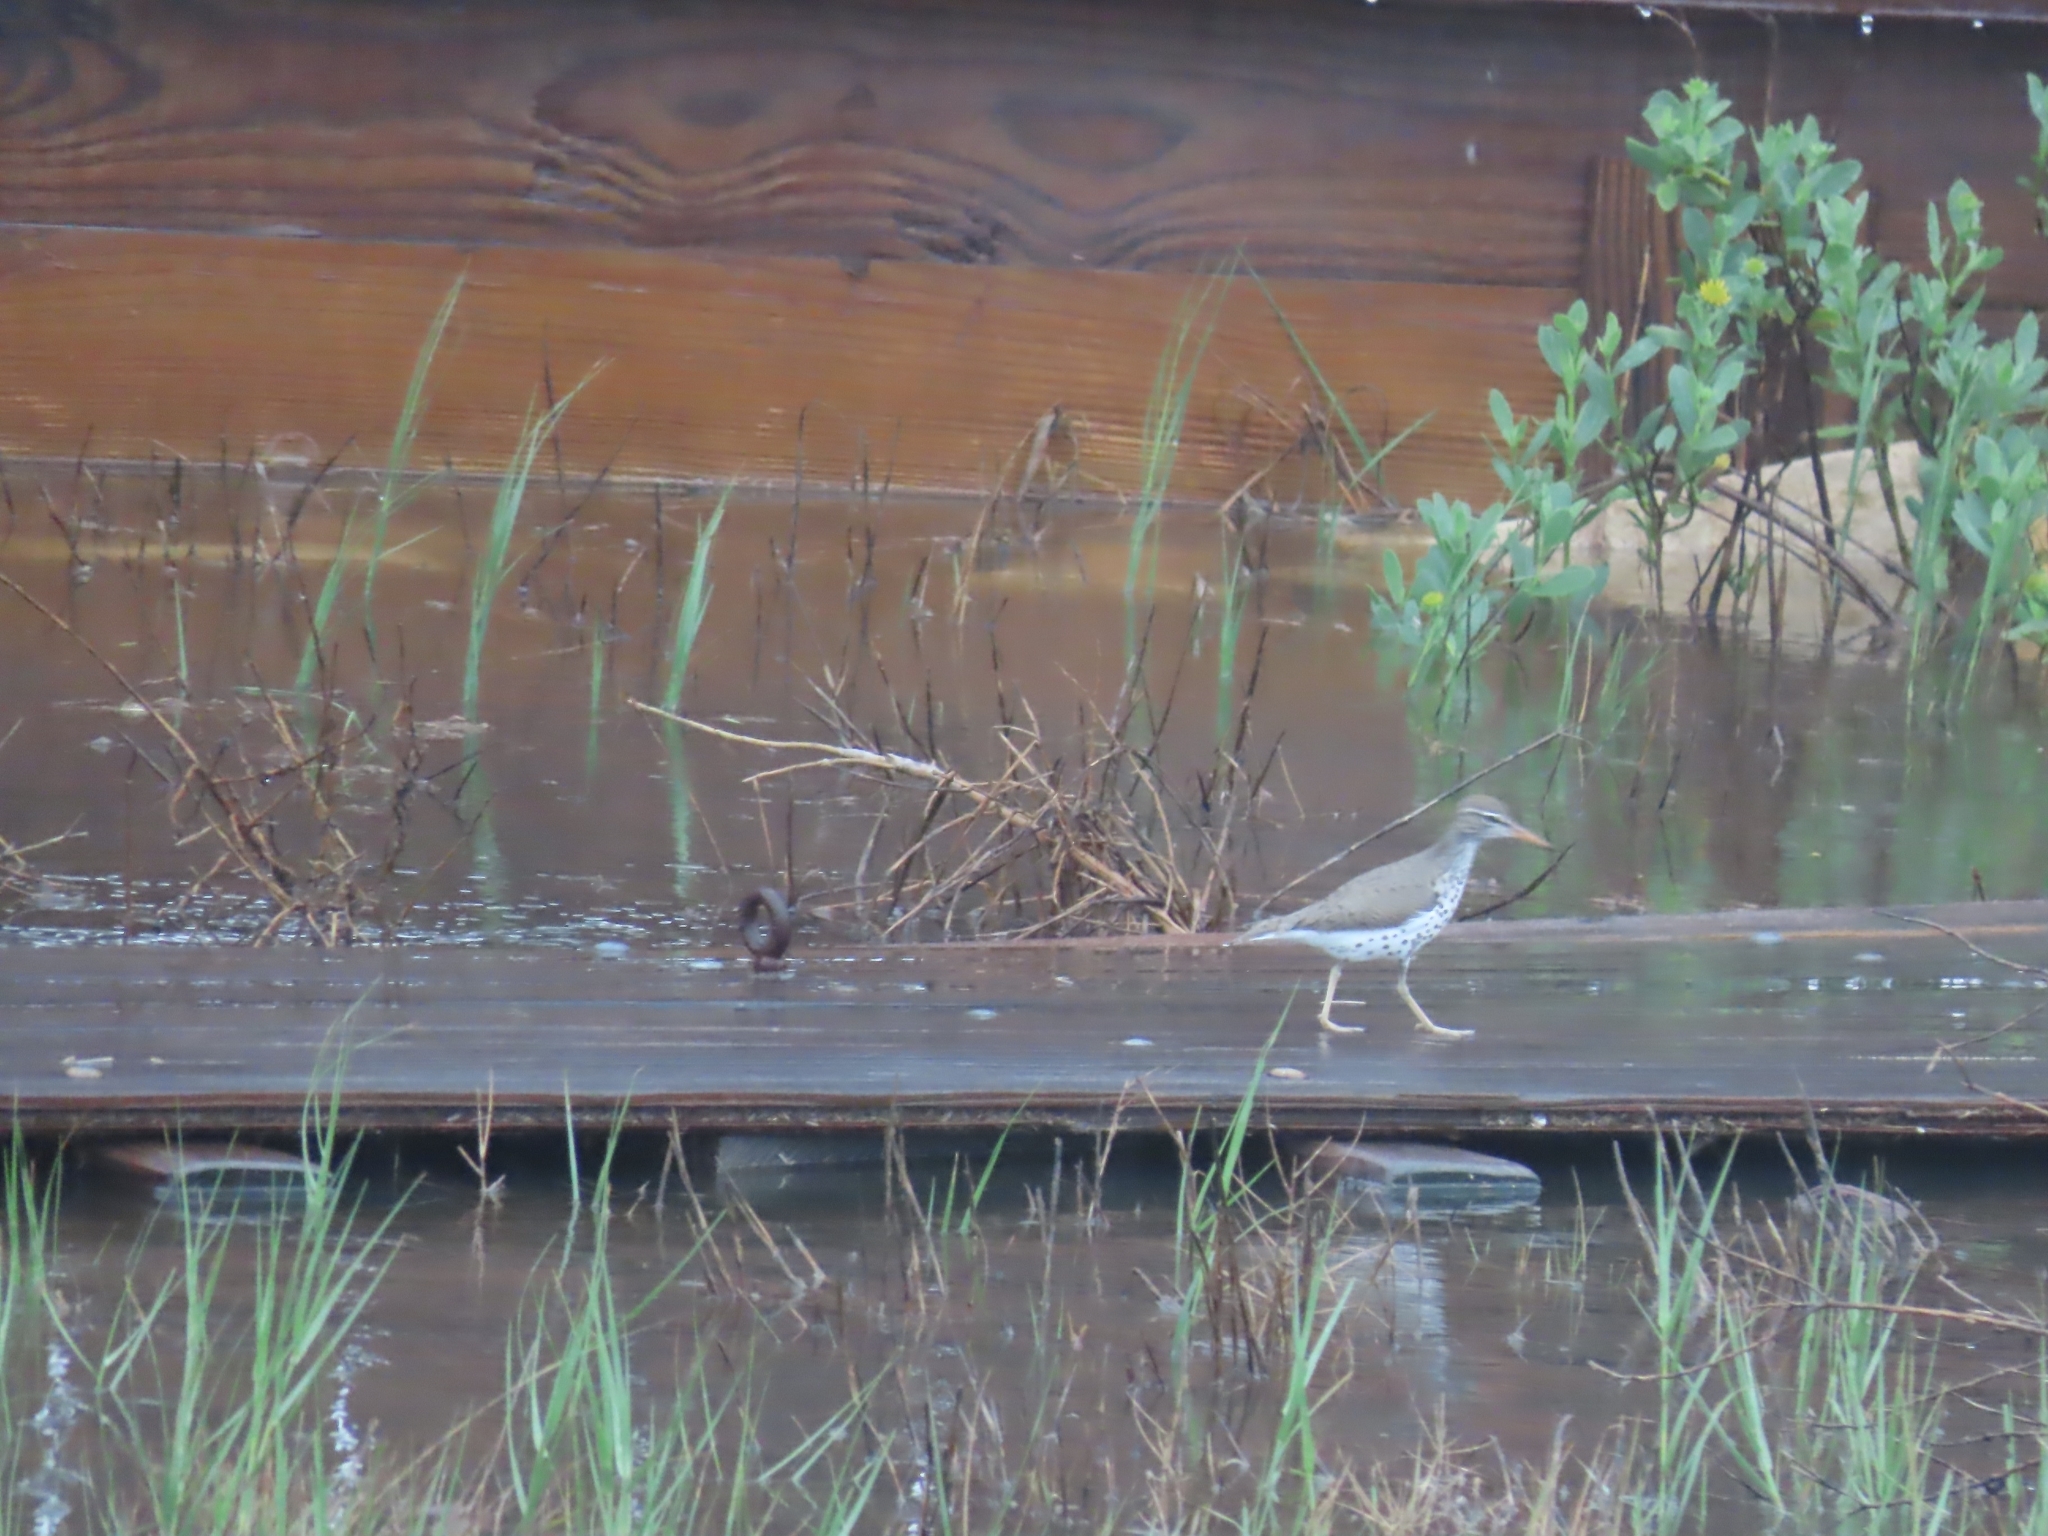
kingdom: Animalia
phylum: Chordata
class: Aves
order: Charadriiformes
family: Scolopacidae
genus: Actitis
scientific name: Actitis macularius
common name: Spotted sandpiper
